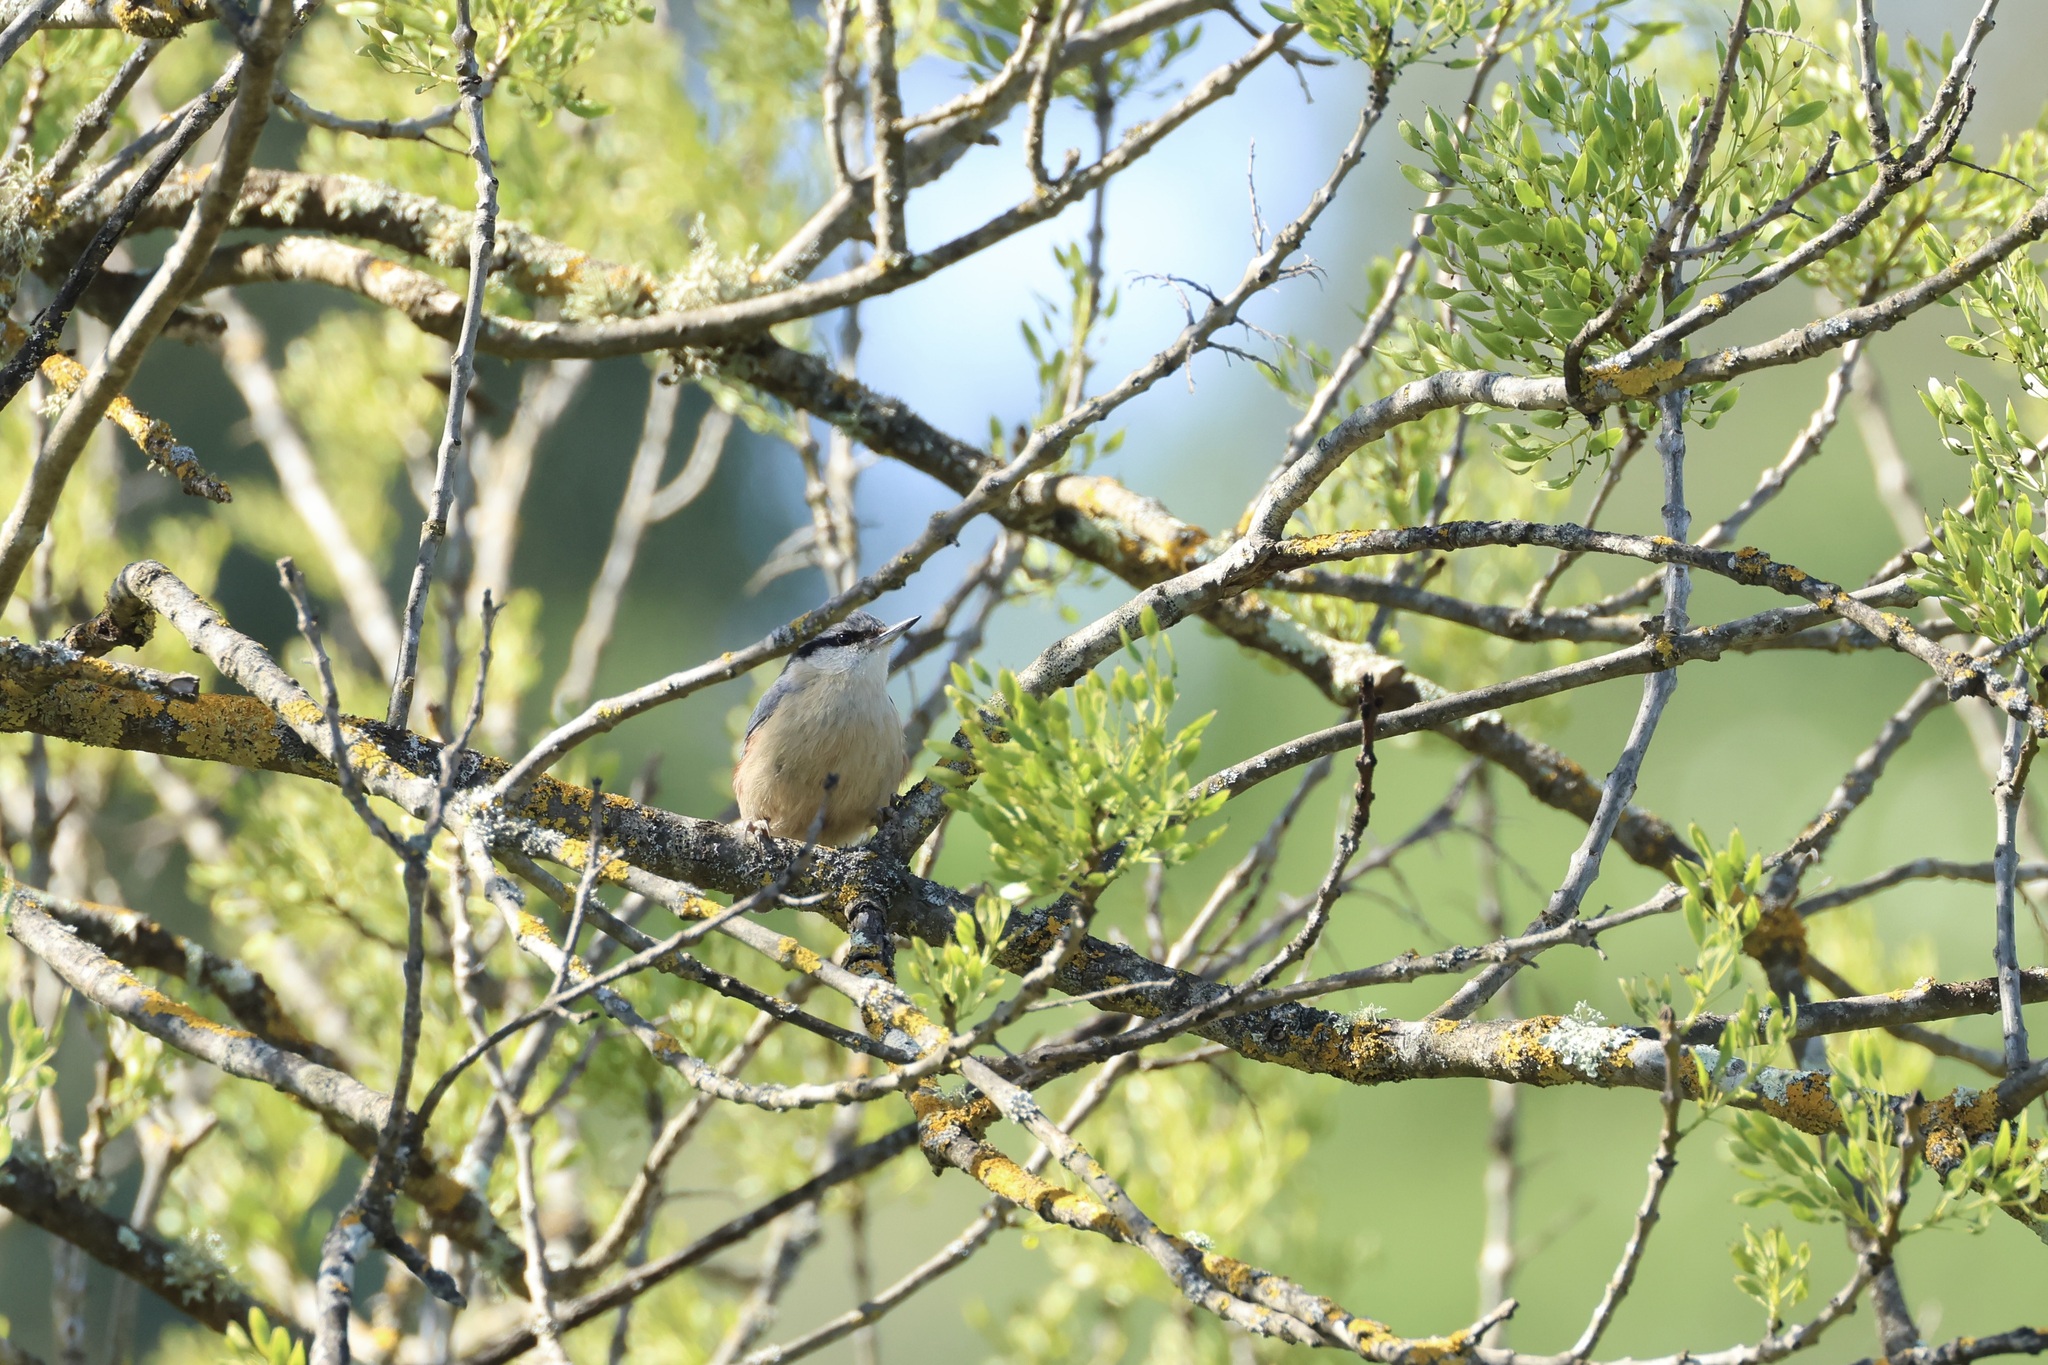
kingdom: Animalia
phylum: Chordata
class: Aves
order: Passeriformes
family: Sittidae
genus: Sitta
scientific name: Sitta europaea
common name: Eurasian nuthatch
